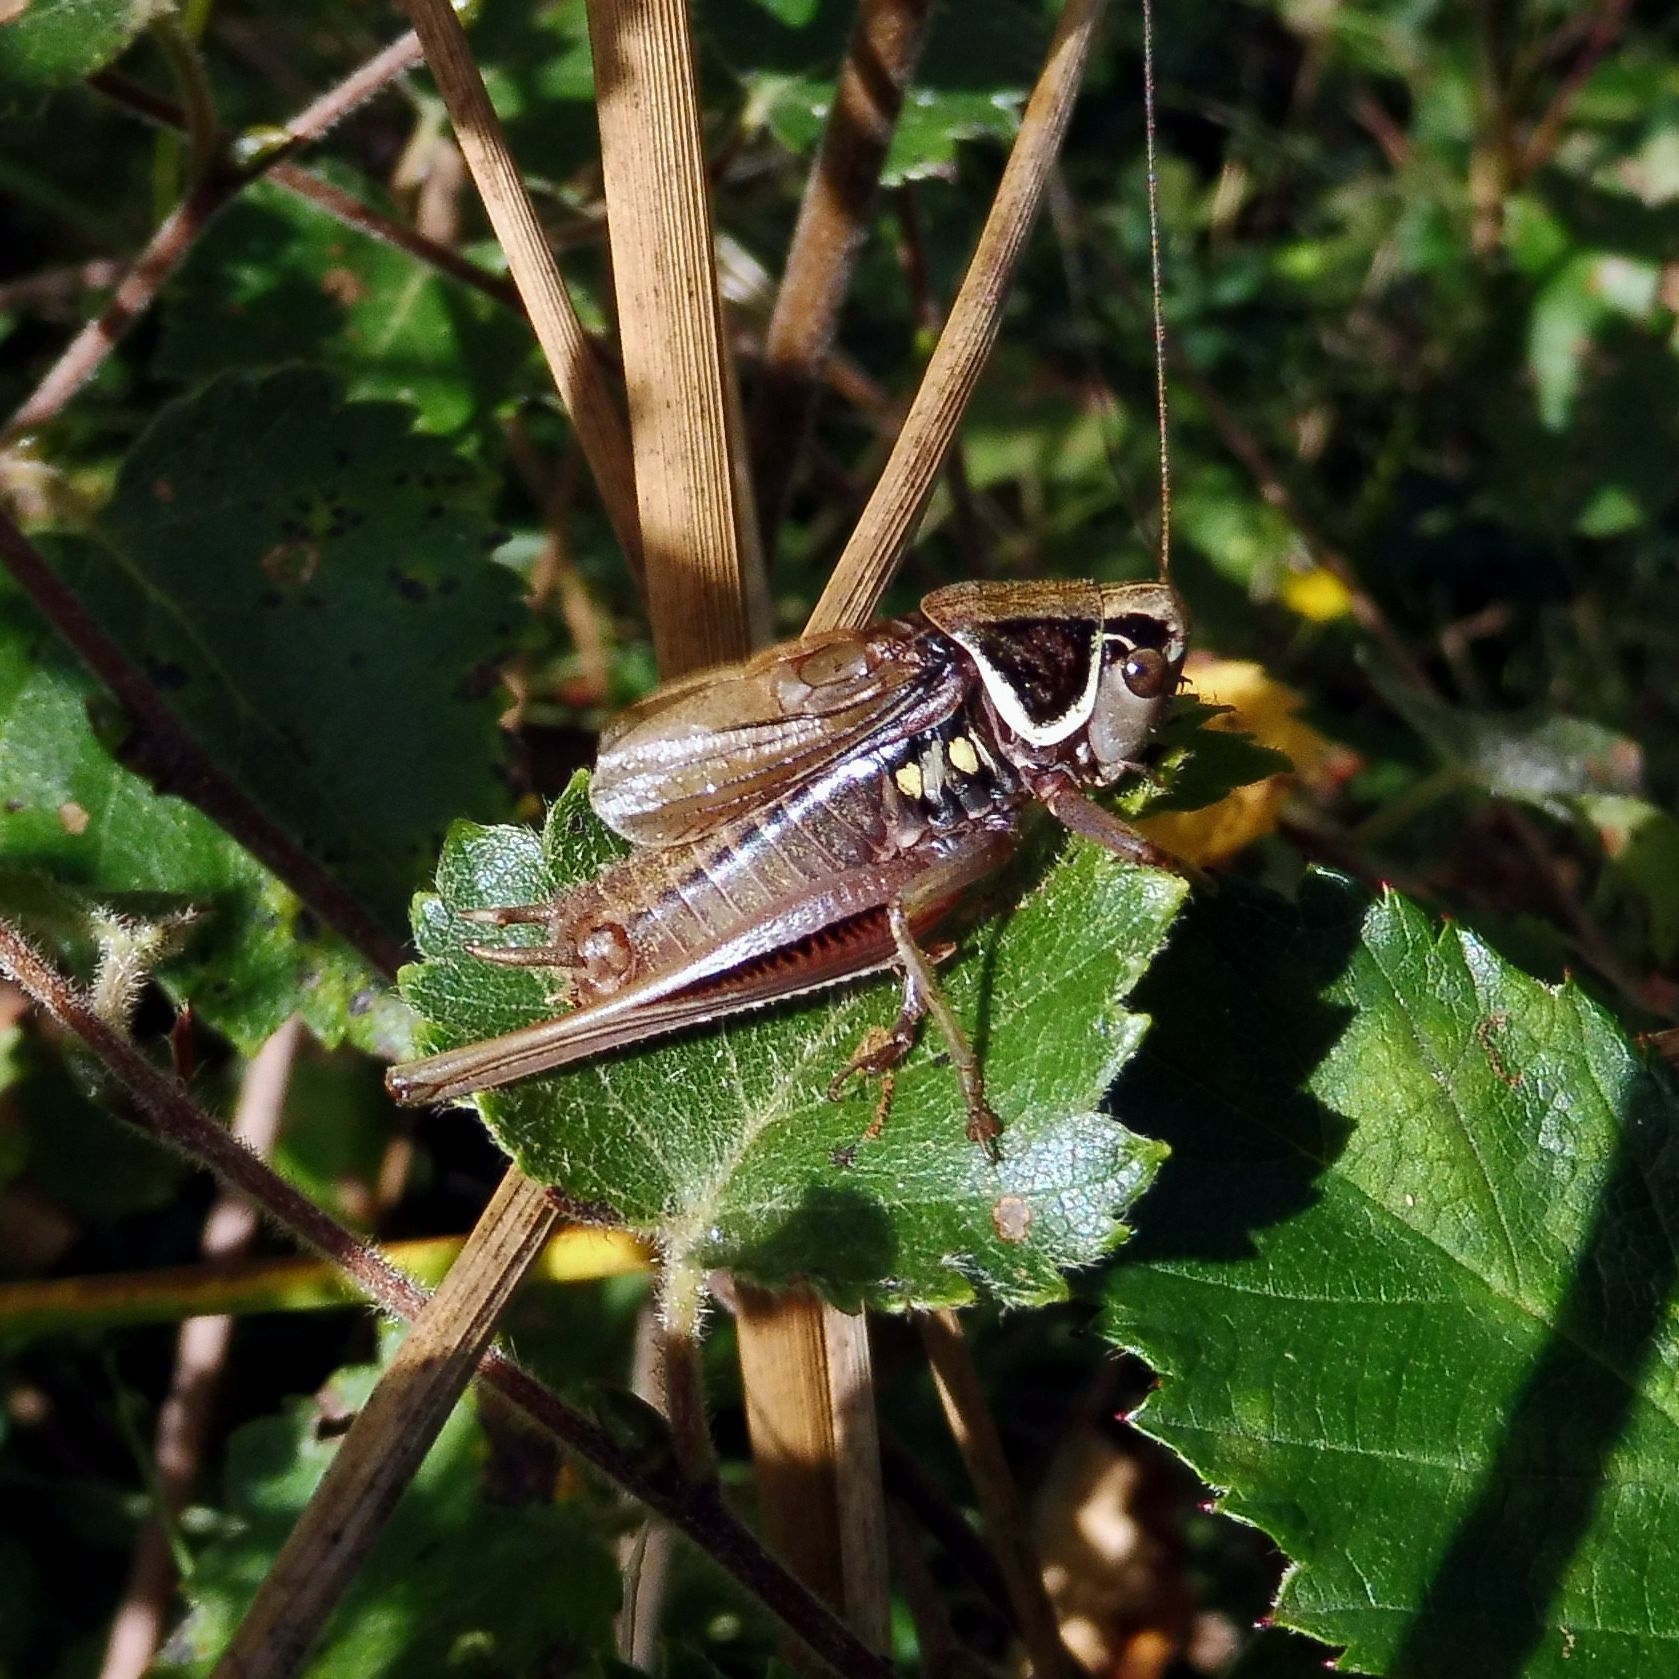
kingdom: Animalia
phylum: Arthropoda
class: Insecta
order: Orthoptera
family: Tettigoniidae
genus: Roeseliana
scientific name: Roeseliana roeselii
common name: Roesel's bush cricket
